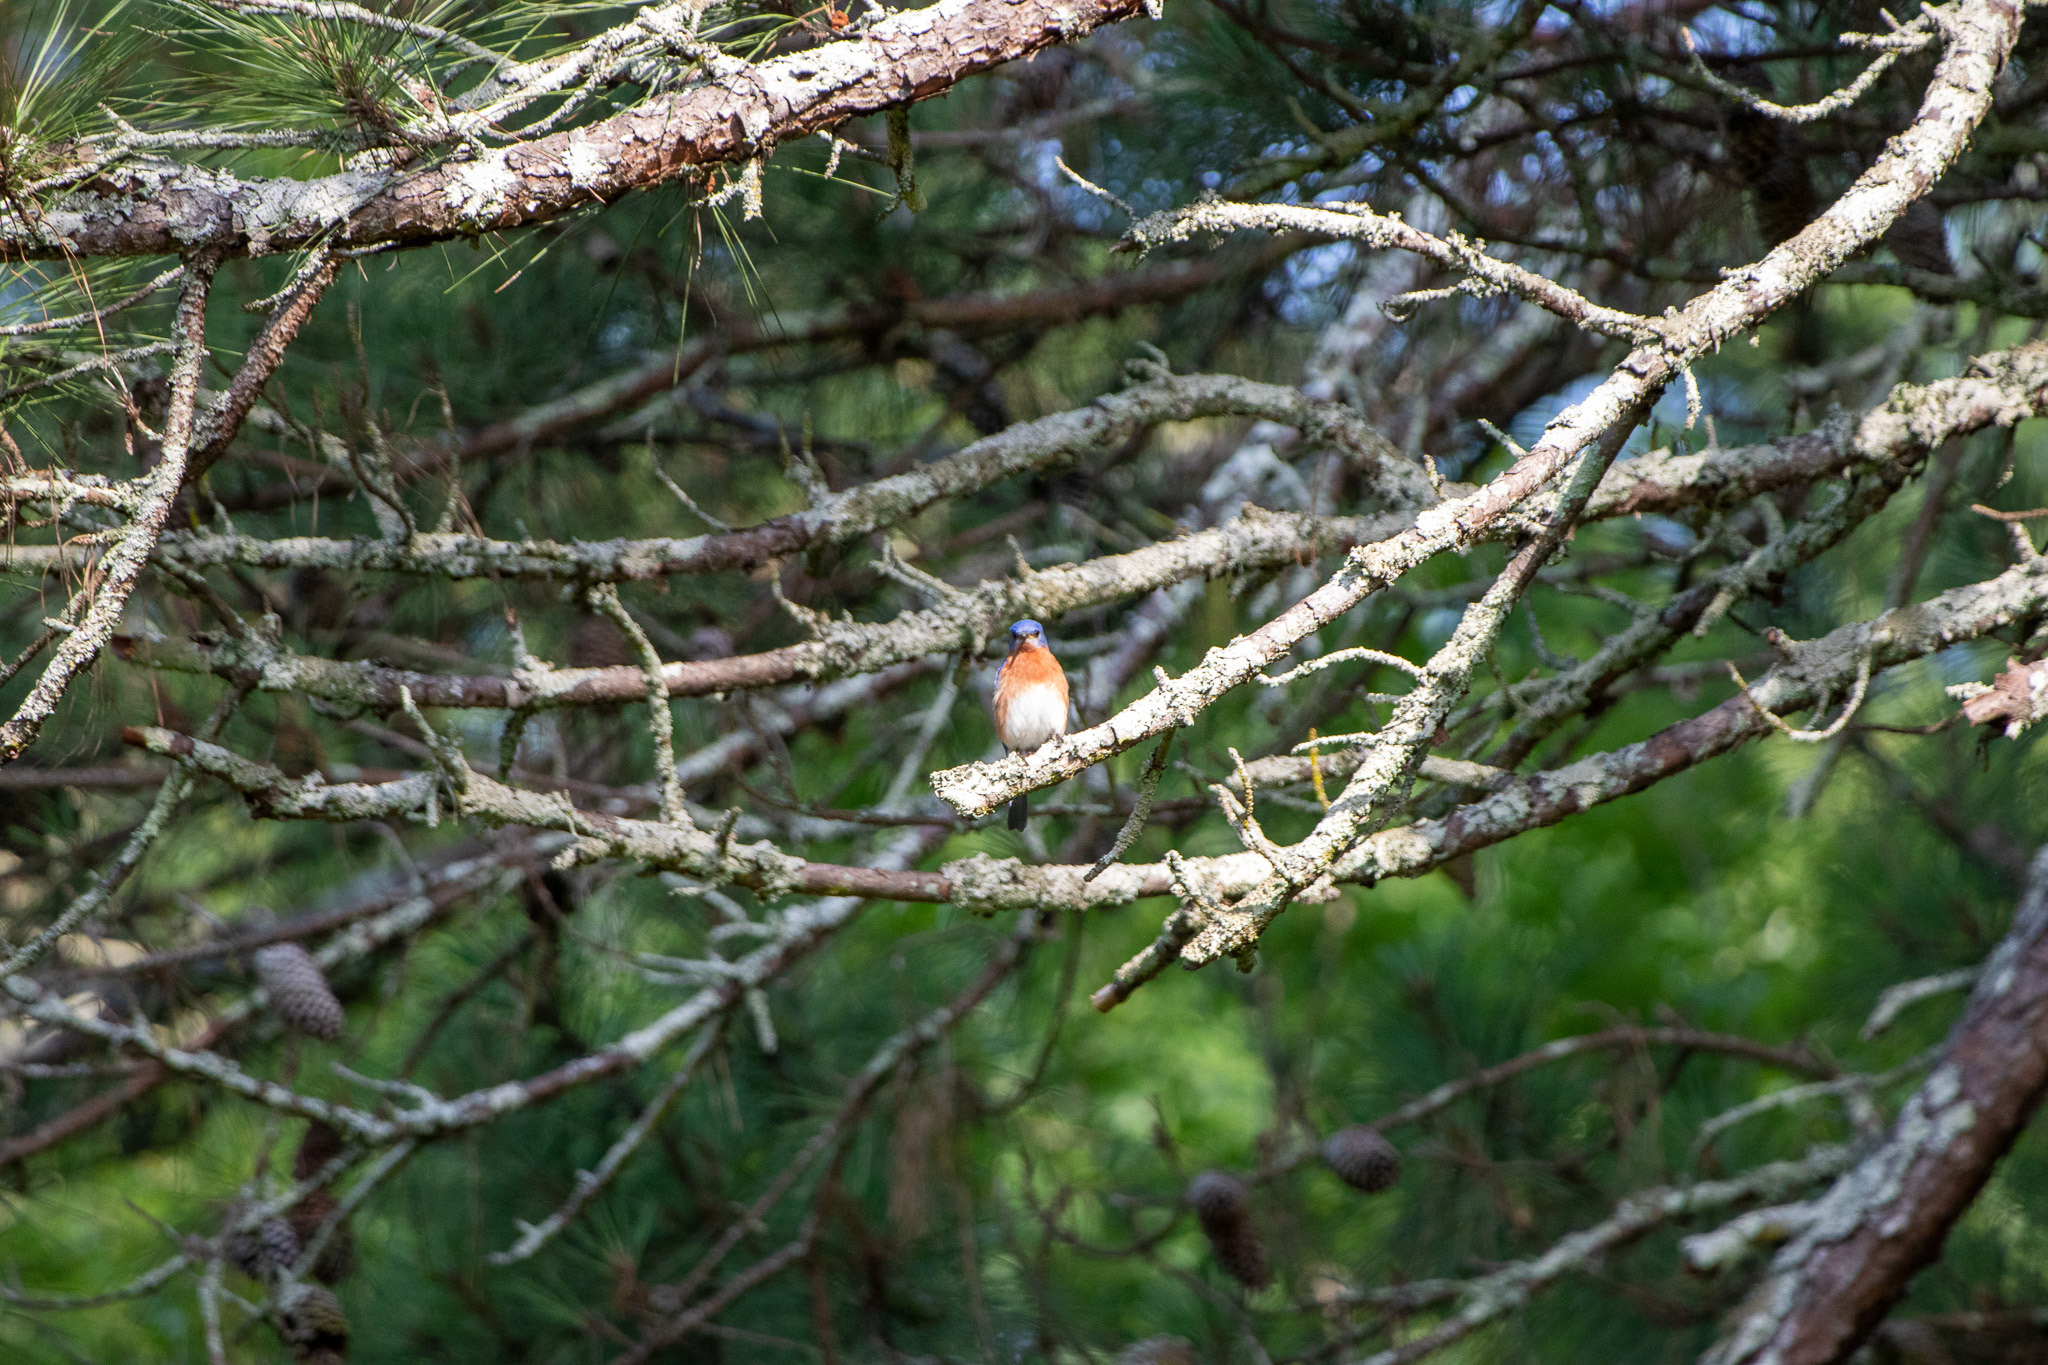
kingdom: Animalia
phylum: Chordata
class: Aves
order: Passeriformes
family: Turdidae
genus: Sialia
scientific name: Sialia sialis
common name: Eastern bluebird
